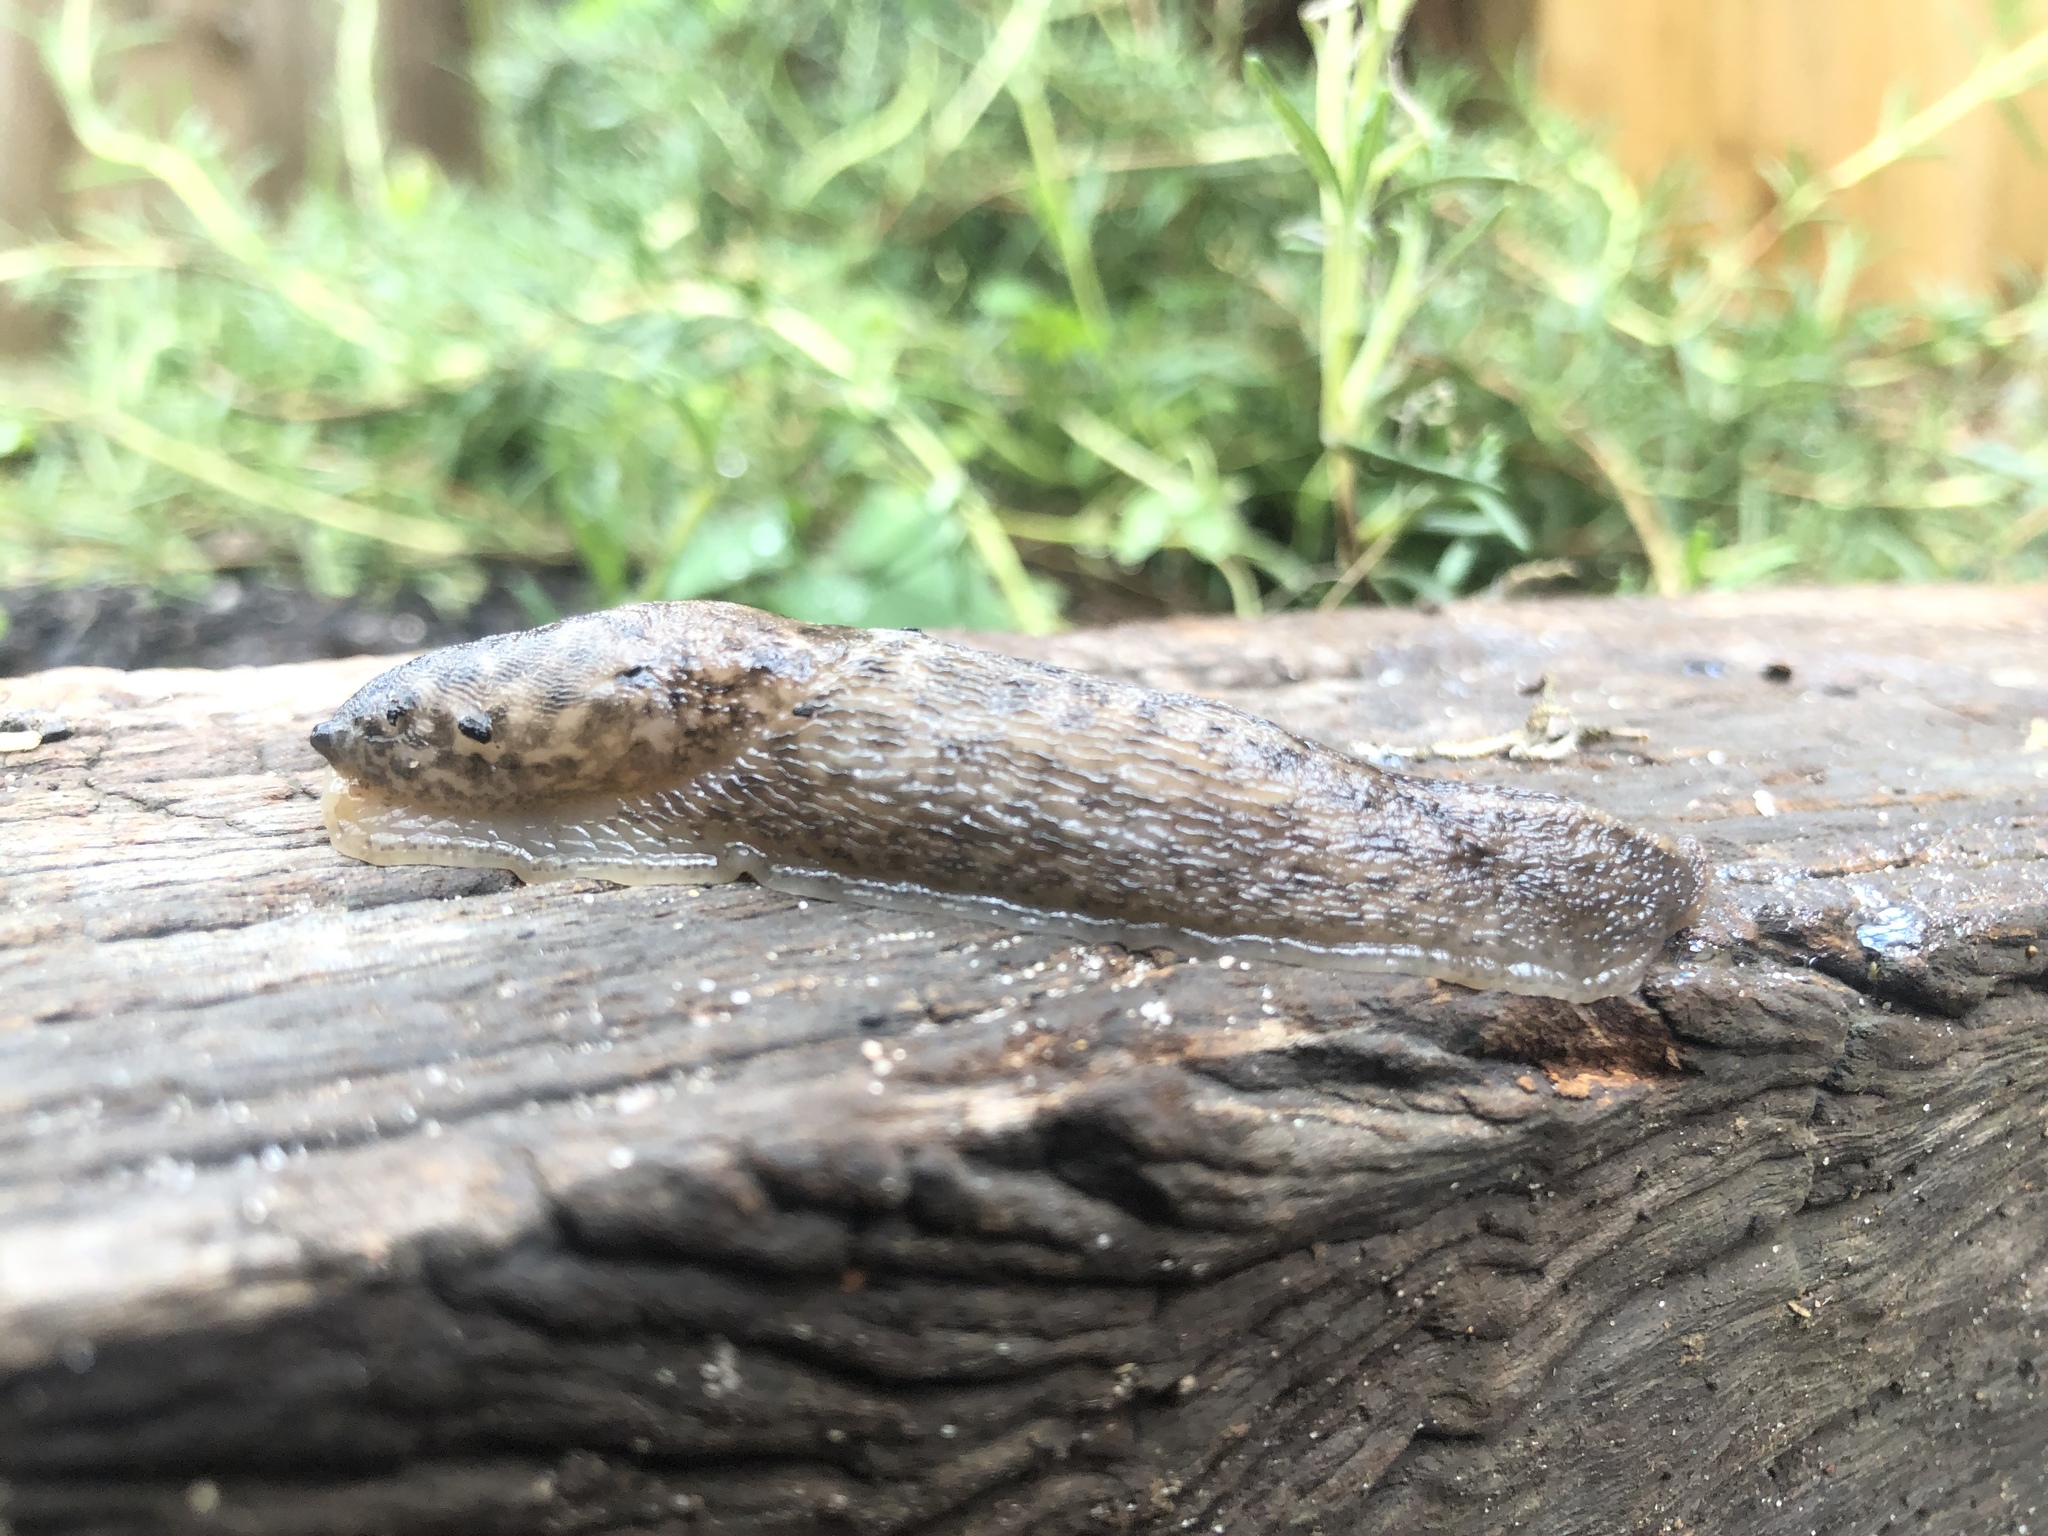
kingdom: Animalia
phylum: Mollusca
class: Gastropoda
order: Stylommatophora
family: Limacidae
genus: Limax
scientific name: Limax maximus
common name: Great grey slug
